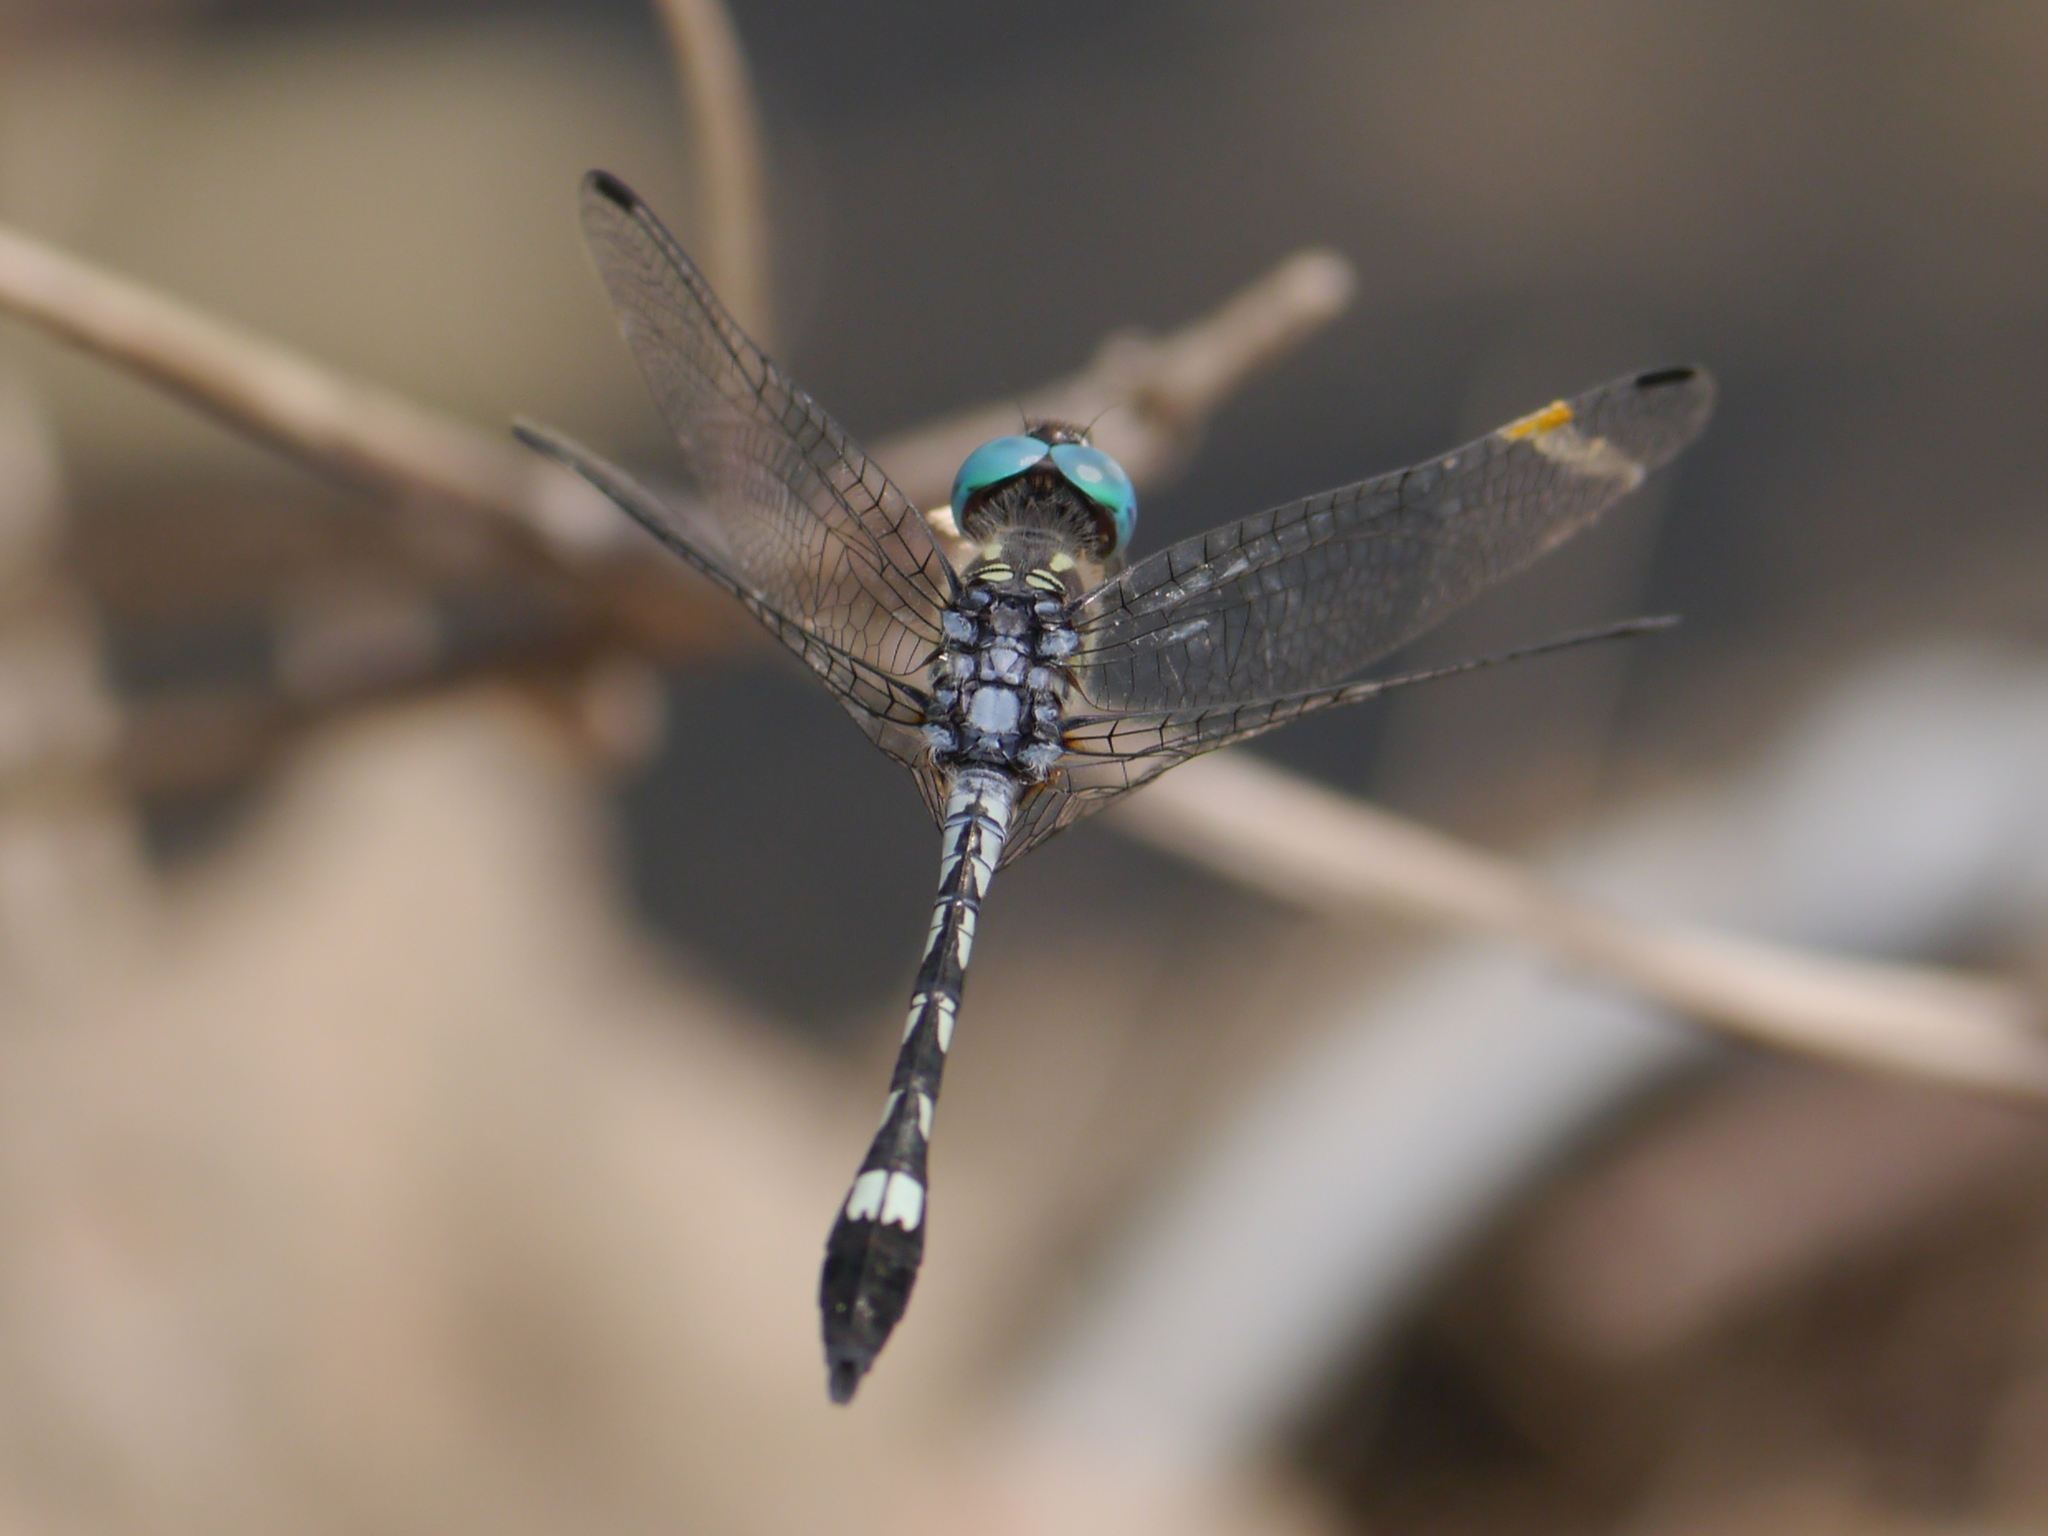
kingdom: Animalia
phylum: Arthropoda
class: Insecta
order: Odonata
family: Libellulidae
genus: Micrathyria
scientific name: Micrathyria hagenii
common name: Thornbush dasher
